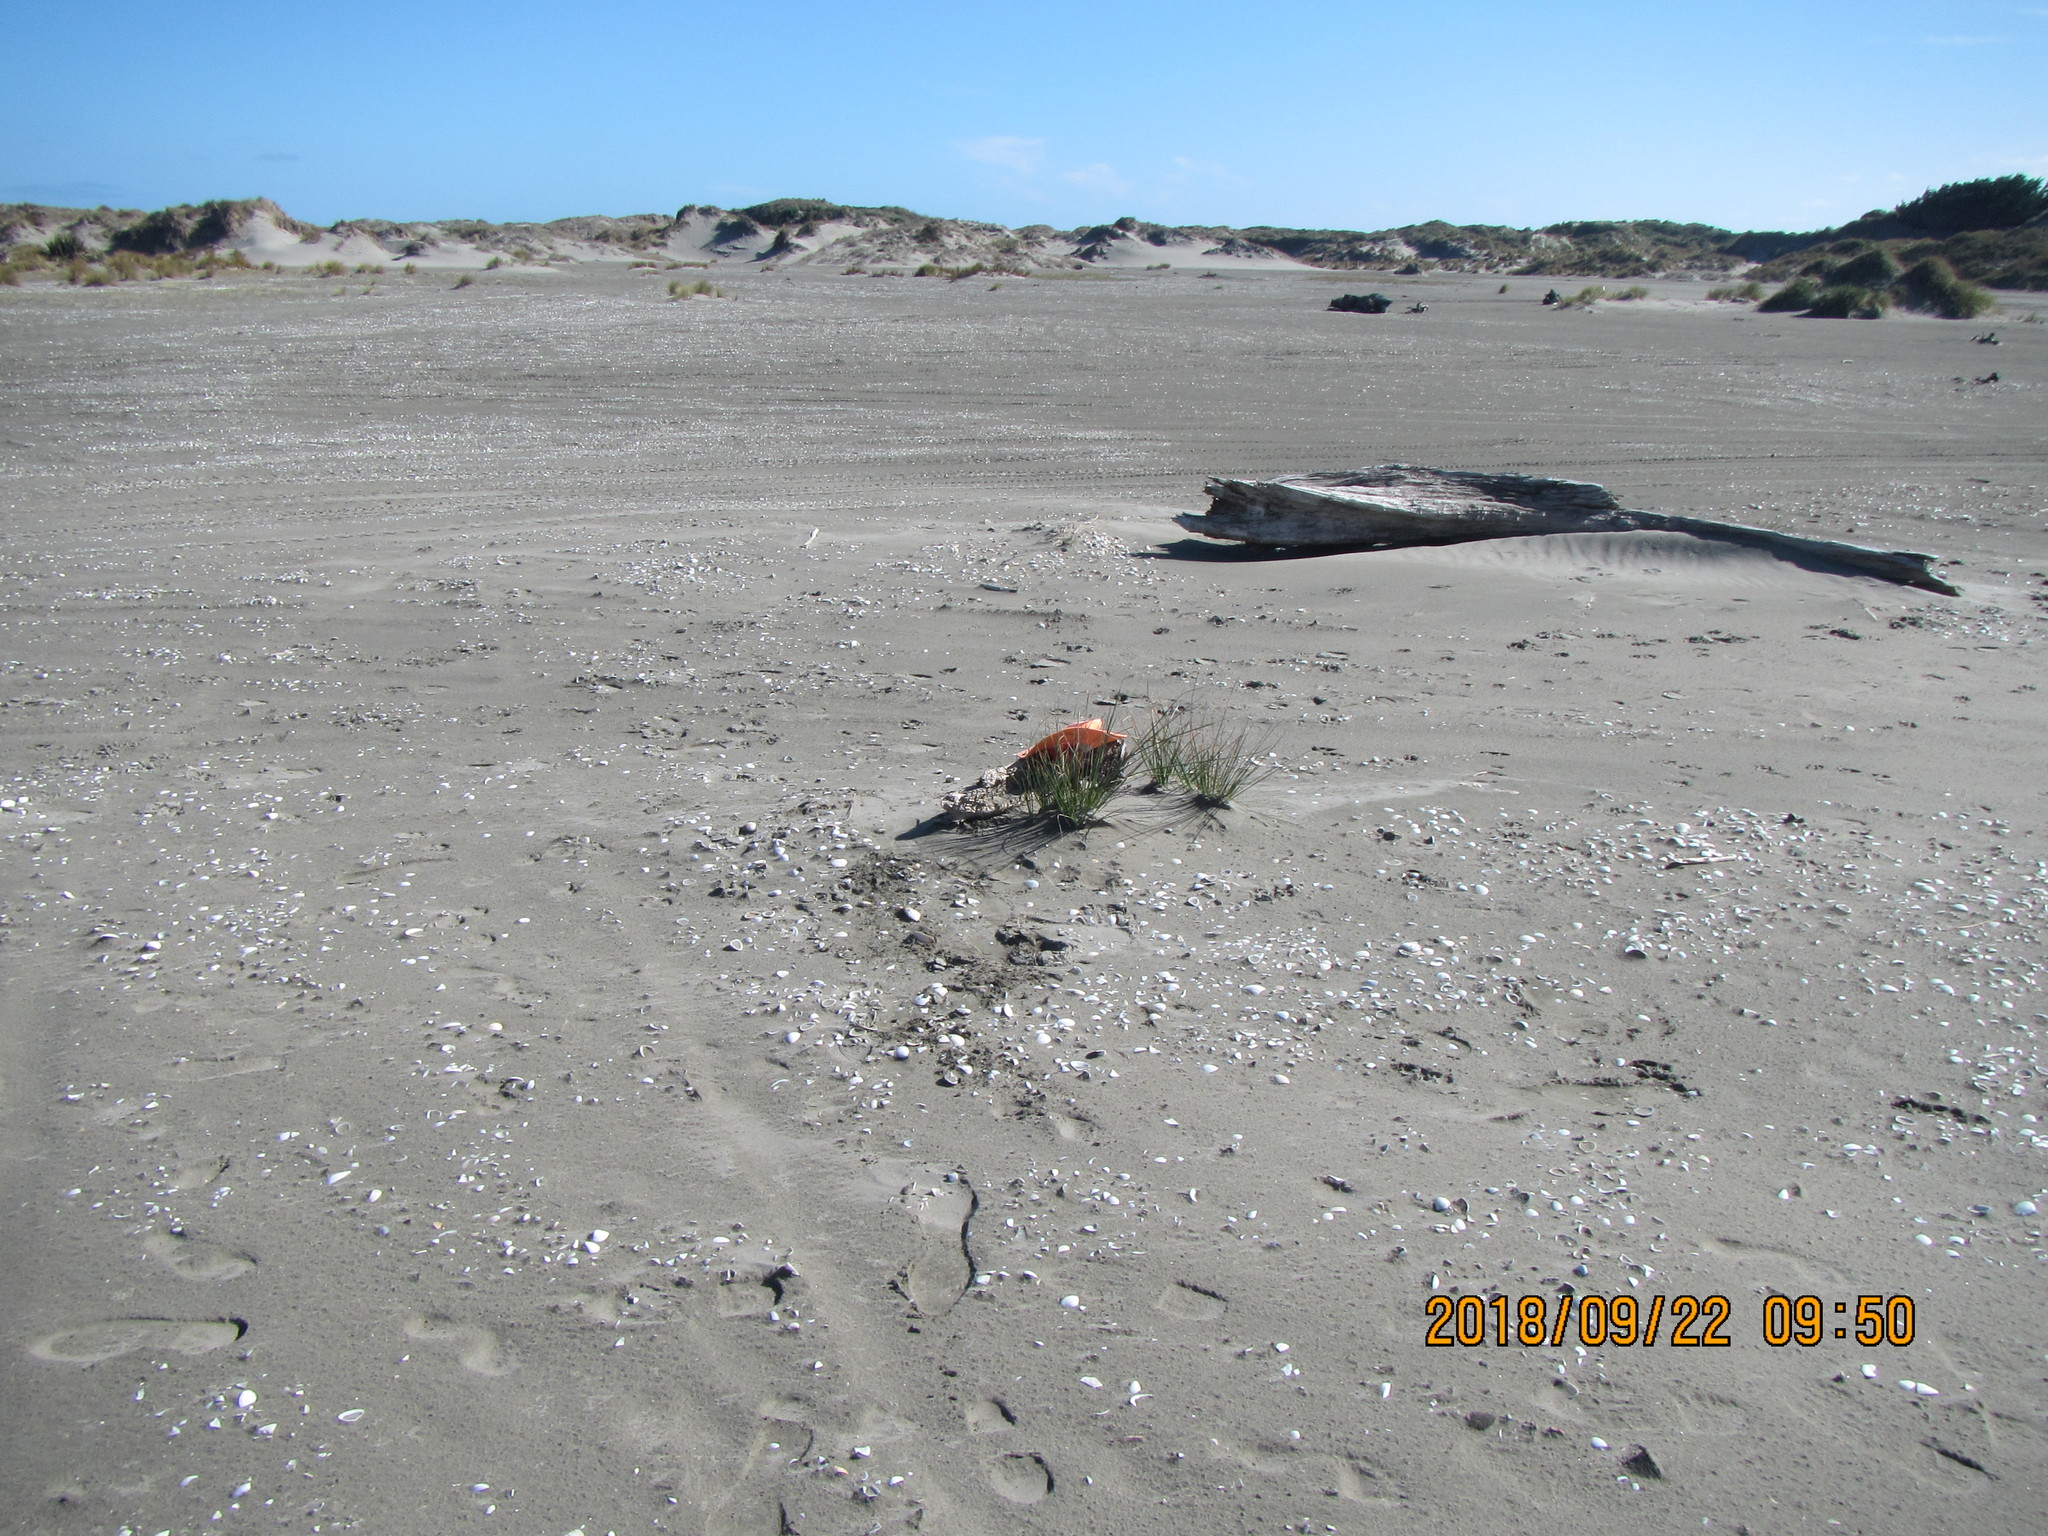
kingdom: Plantae
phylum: Tracheophyta
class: Liliopsida
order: Poales
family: Cyperaceae
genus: Ficinia
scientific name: Ficinia nodosa
